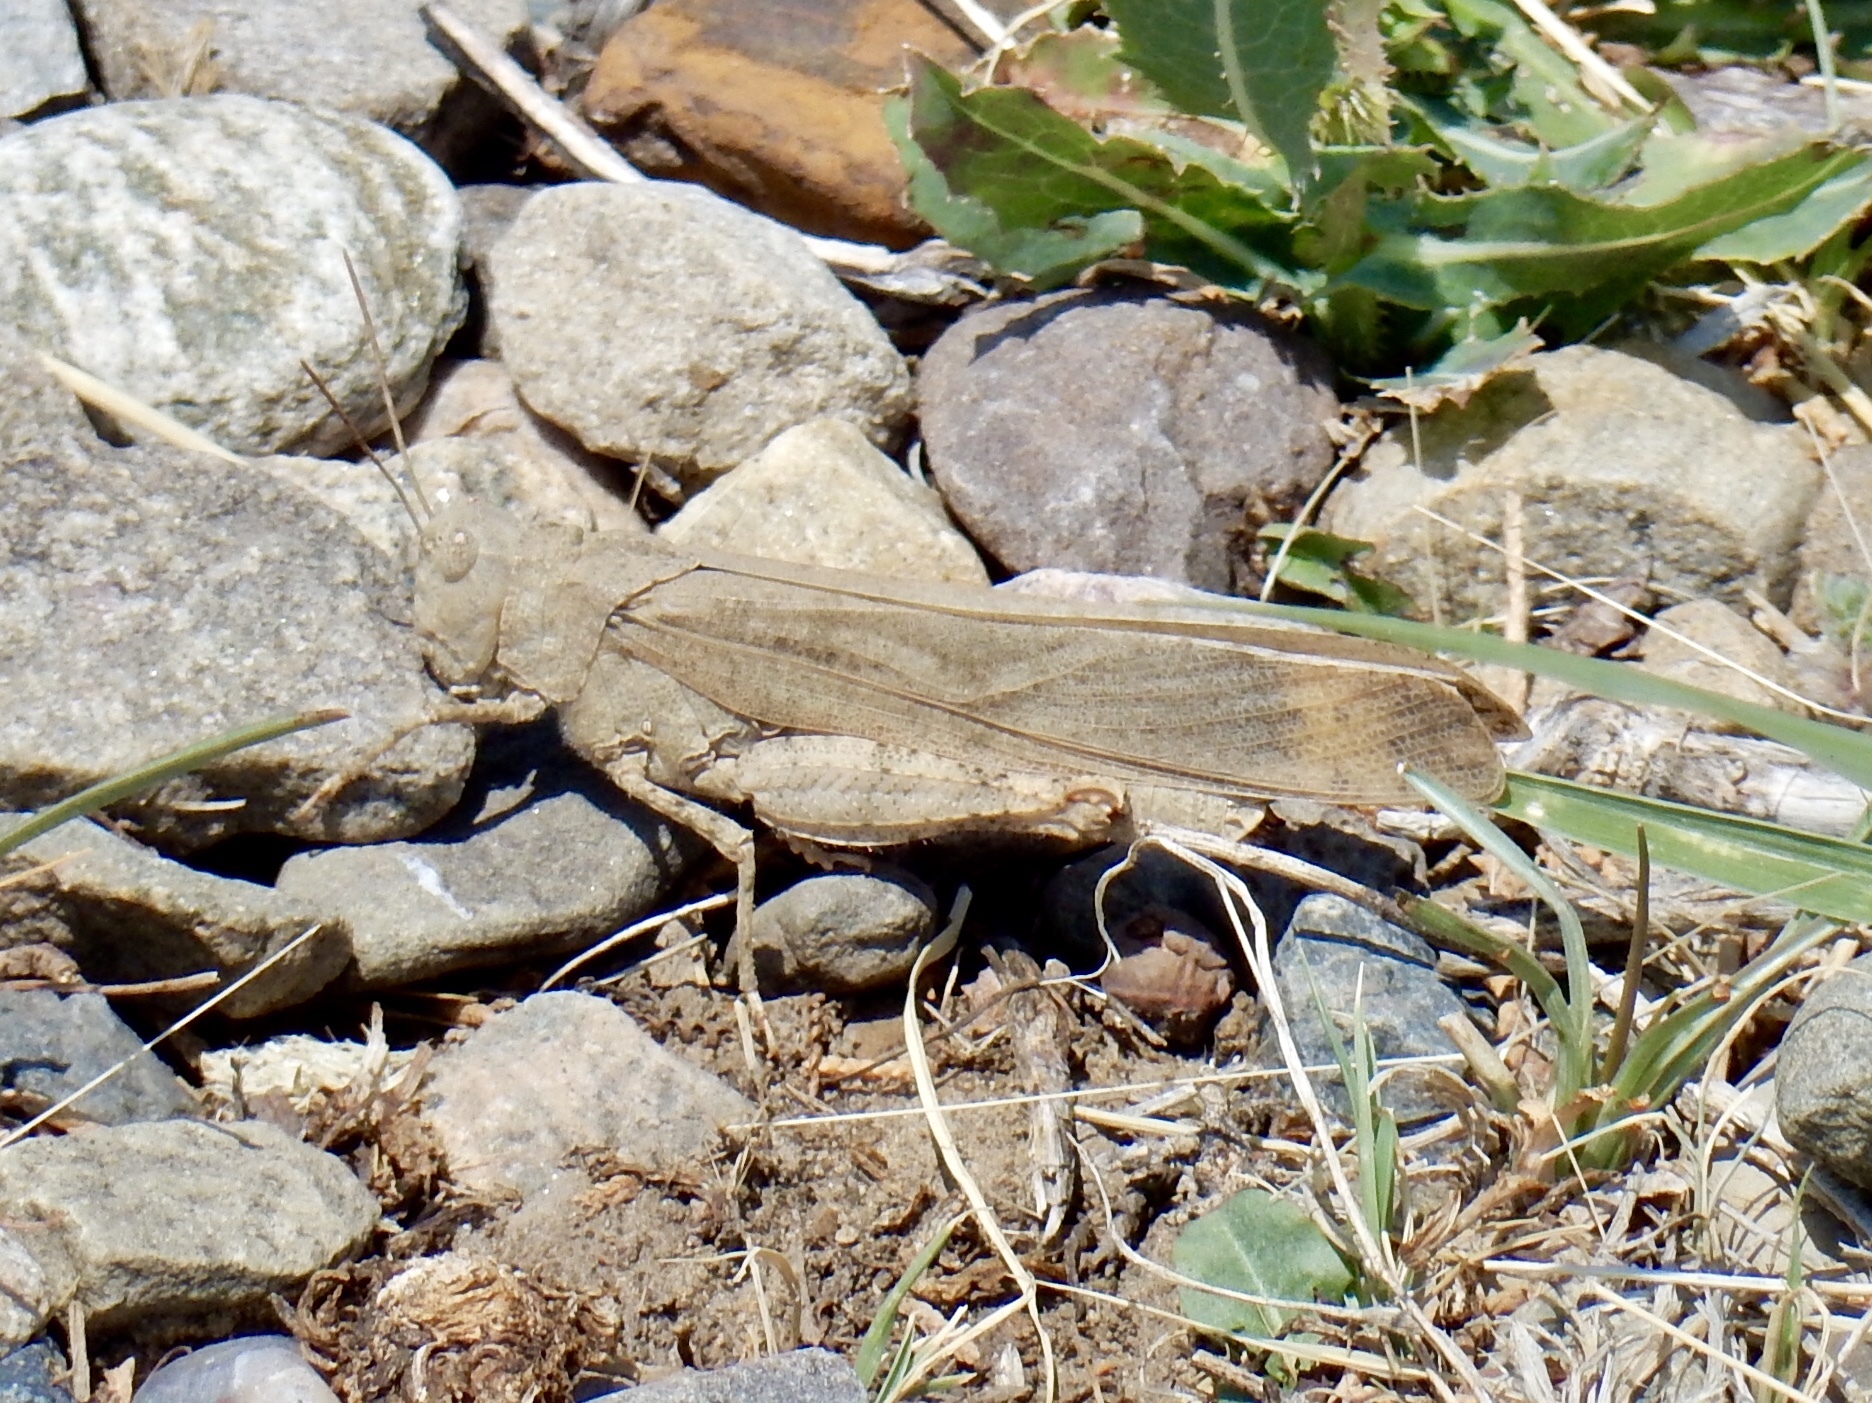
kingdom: Animalia
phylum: Arthropoda
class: Insecta
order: Orthoptera
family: Acrididae
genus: Dissosteira
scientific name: Dissosteira carolina
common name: Carolina grasshopper
